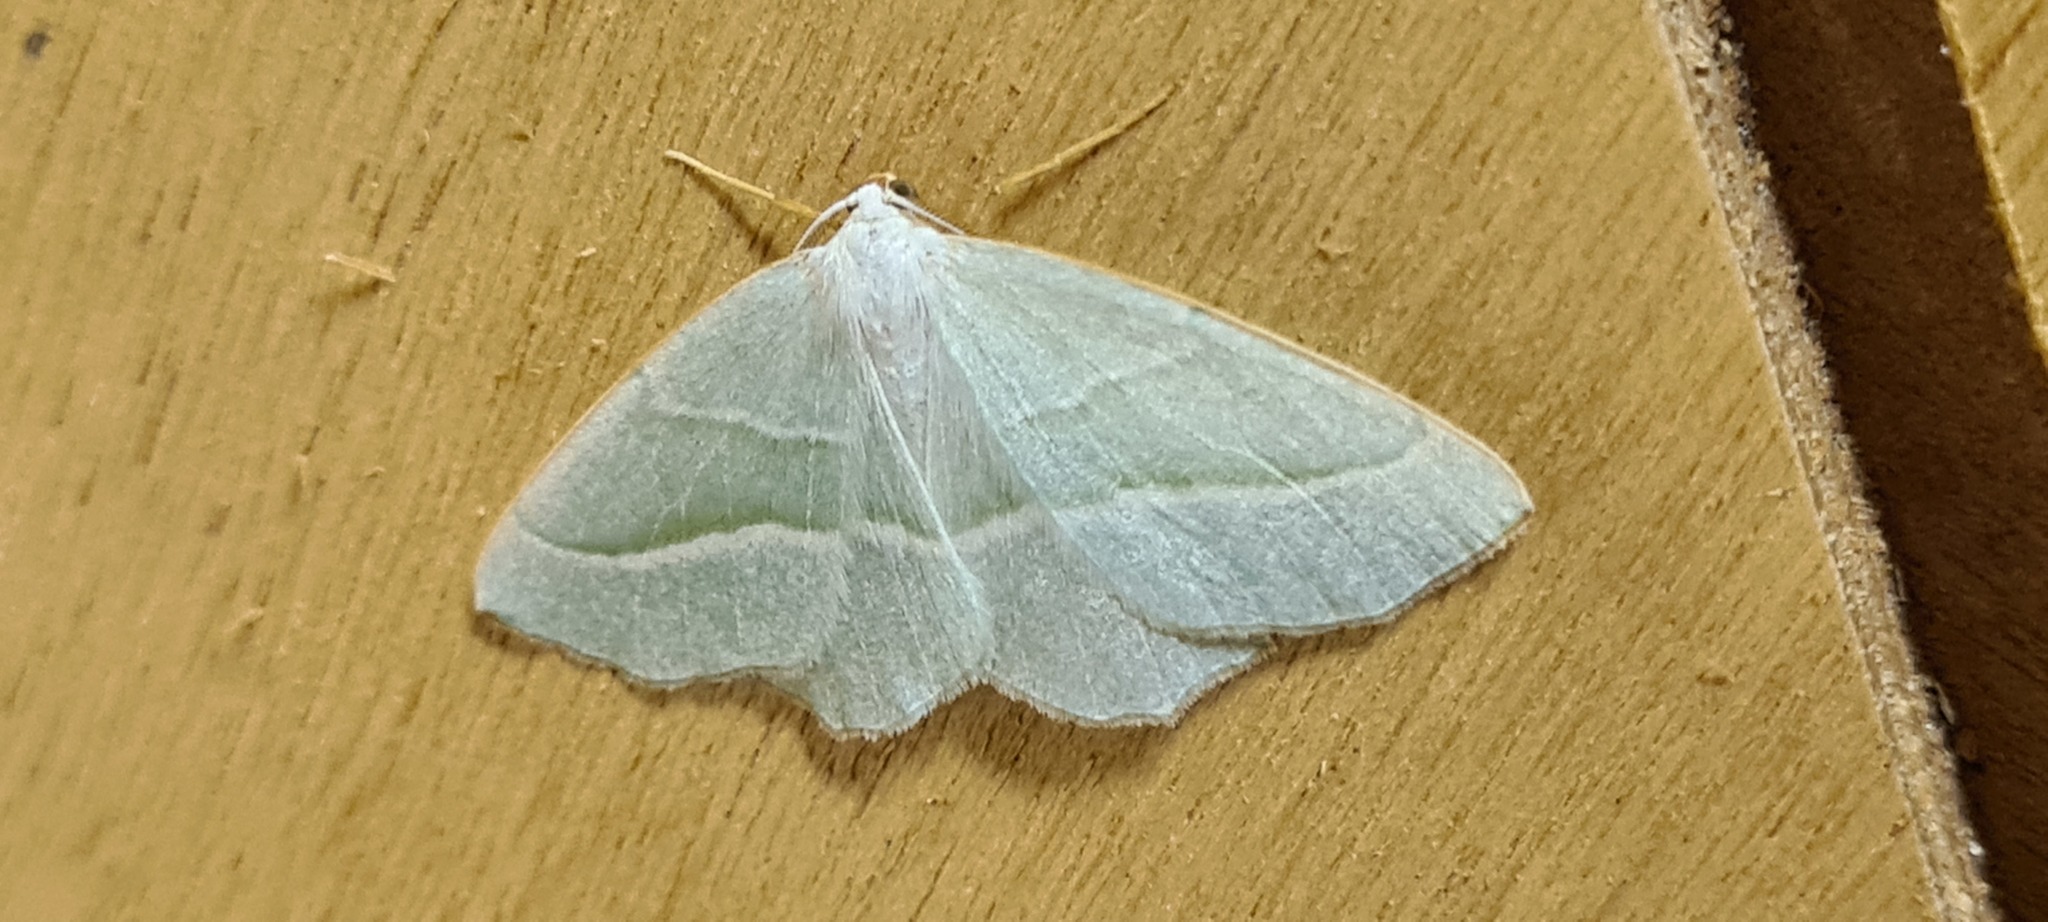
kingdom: Animalia
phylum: Arthropoda
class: Insecta
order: Lepidoptera
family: Geometridae
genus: Campaea
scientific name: Campaea margaritaria
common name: Light emerald
